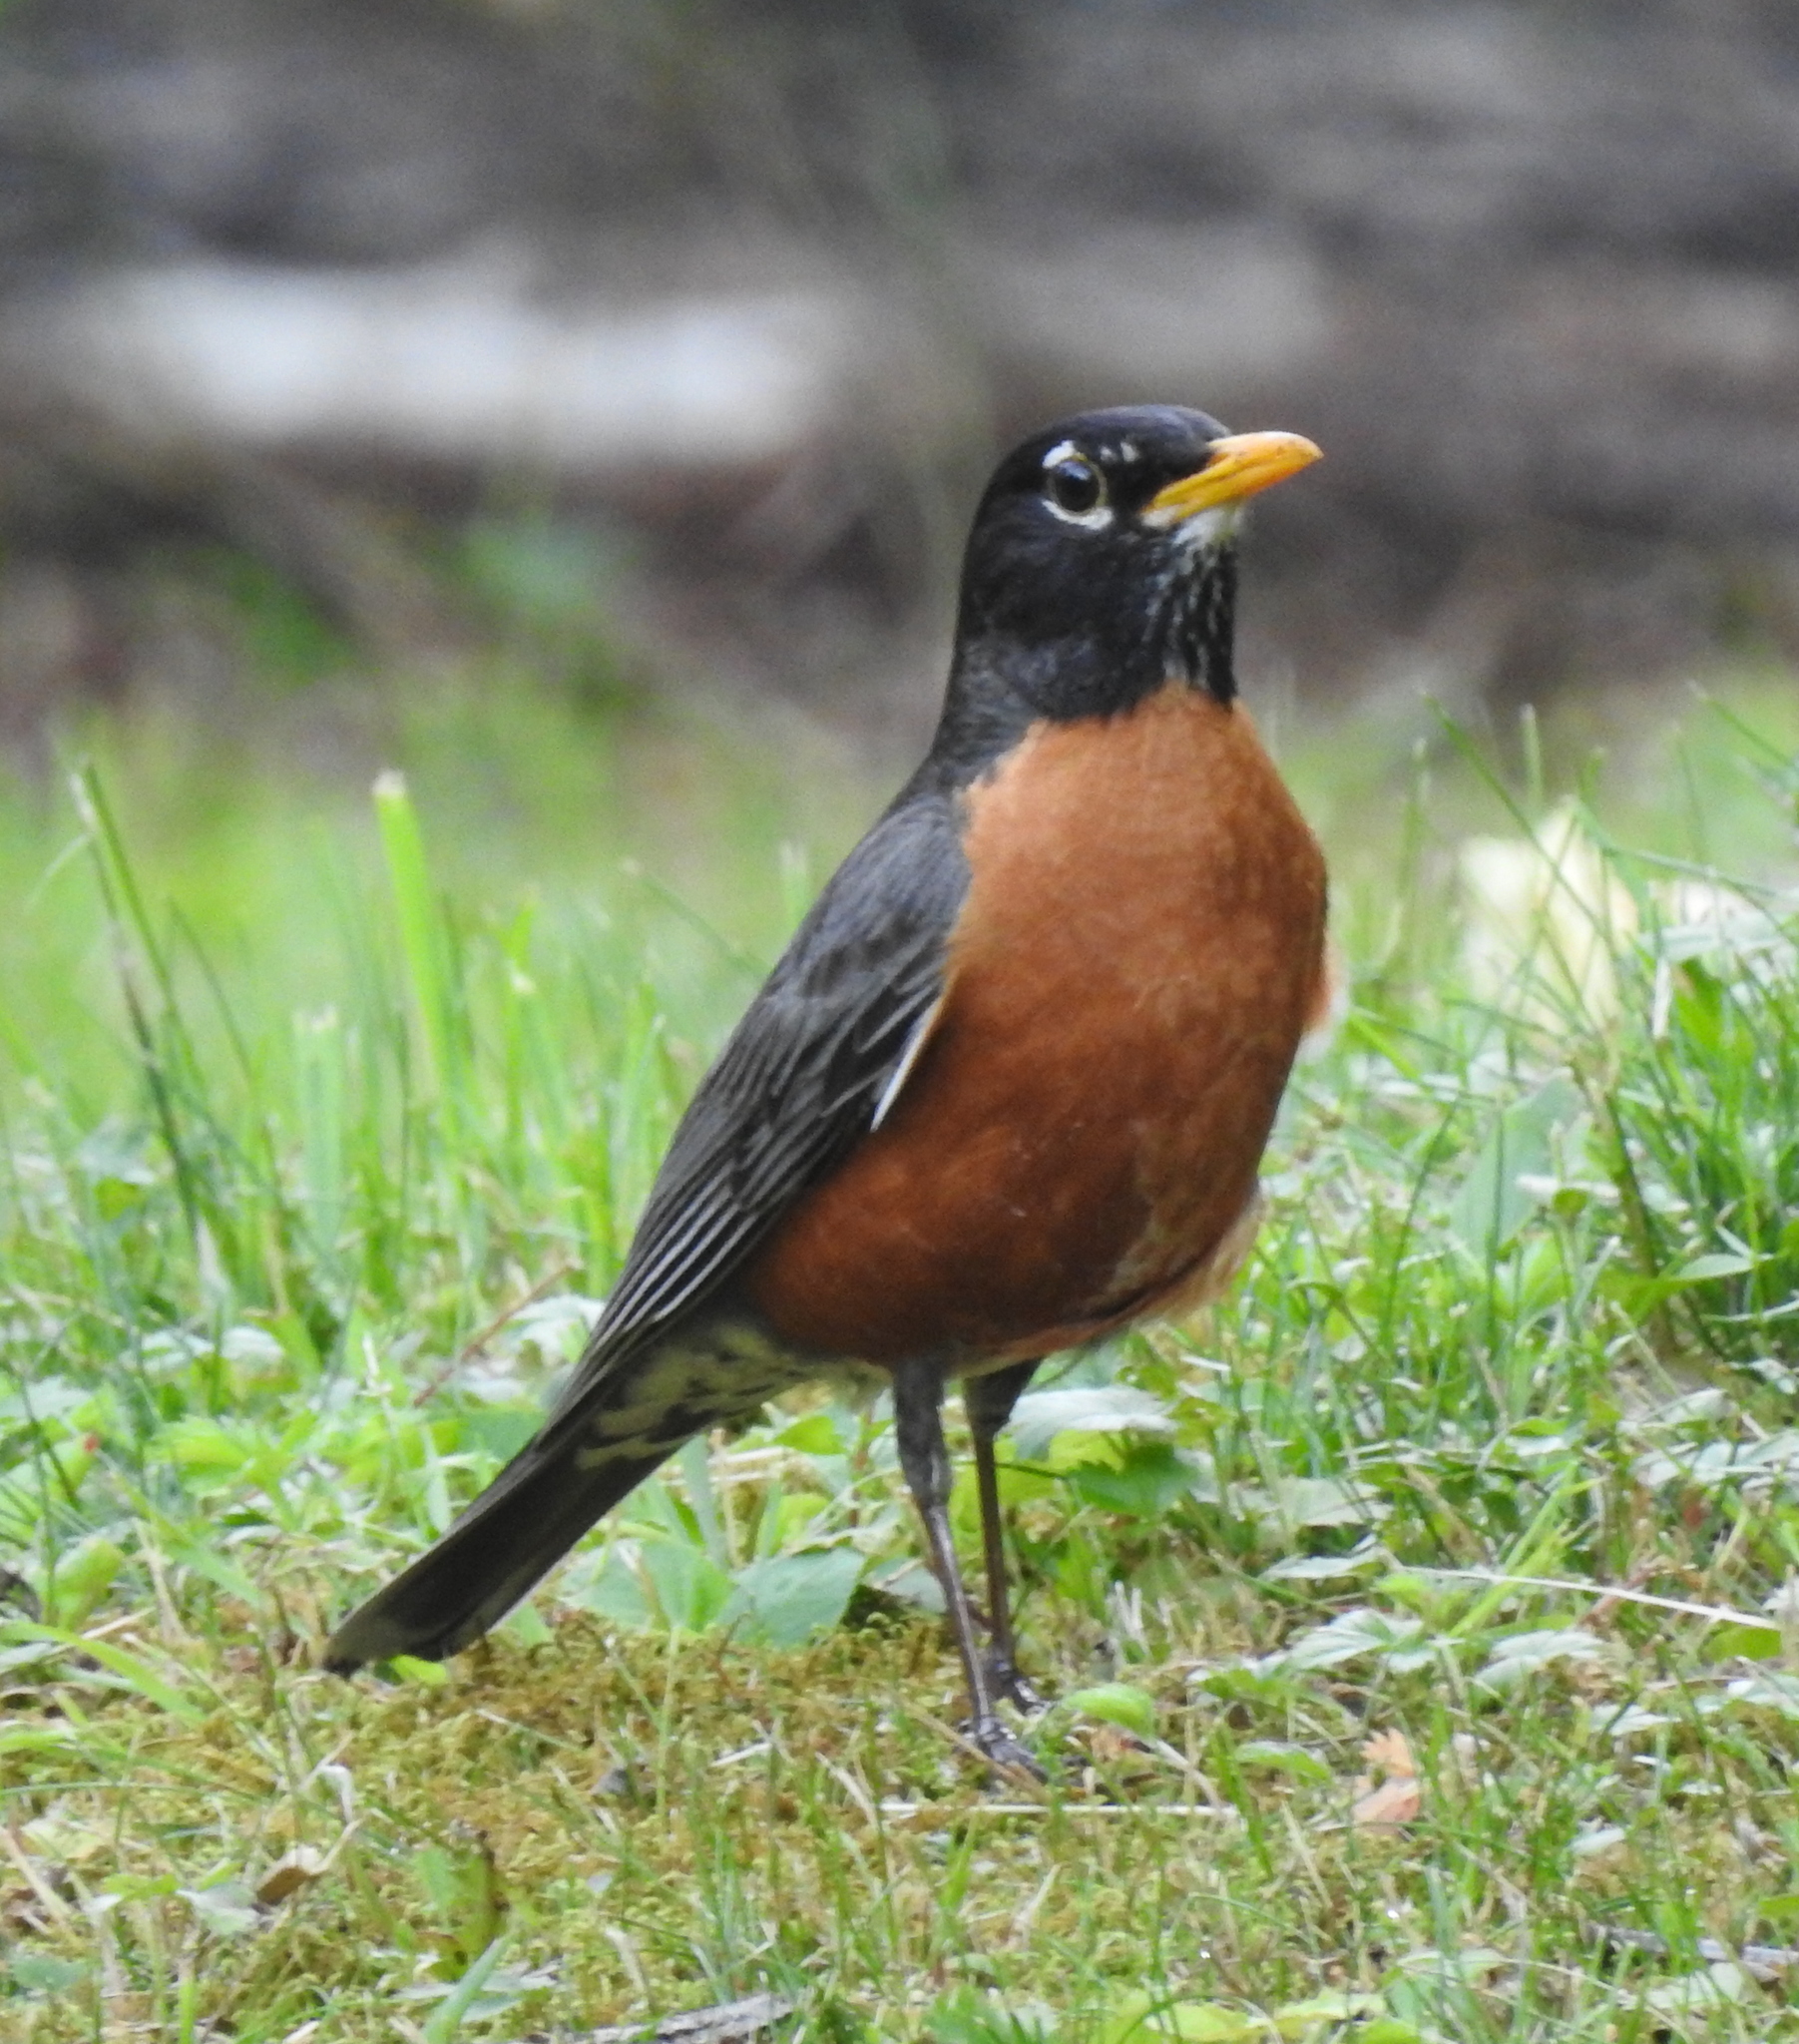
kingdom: Animalia
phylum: Chordata
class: Aves
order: Passeriformes
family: Turdidae
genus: Turdus
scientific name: Turdus migratorius
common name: American robin
